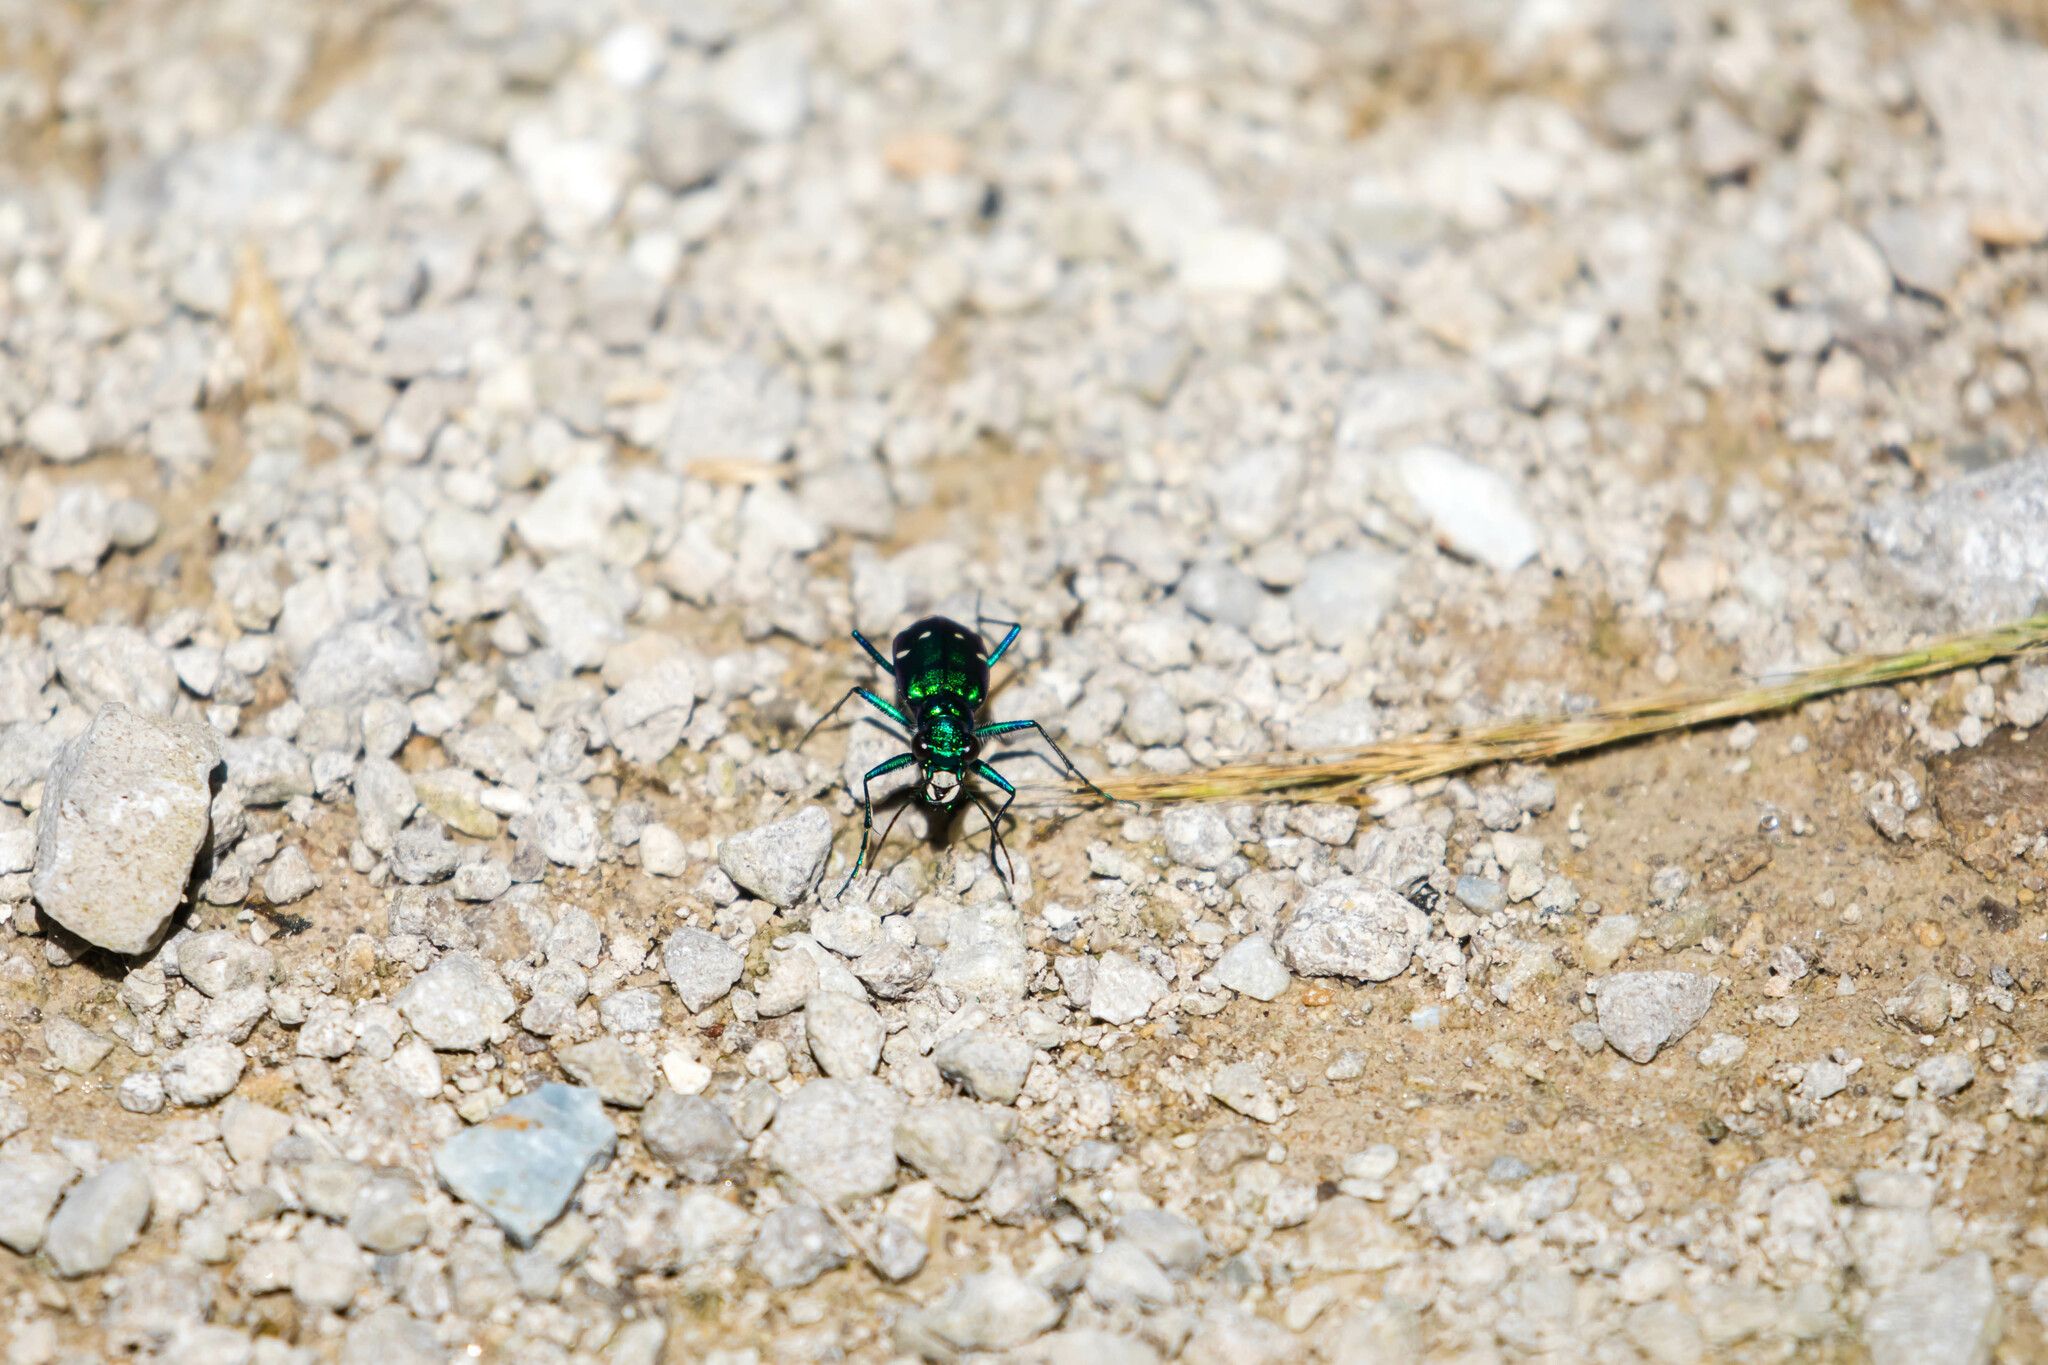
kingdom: Animalia
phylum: Arthropoda
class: Insecta
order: Coleoptera
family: Carabidae
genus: Cicindela
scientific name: Cicindela sexguttata
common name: Six-spotted tiger beetle
